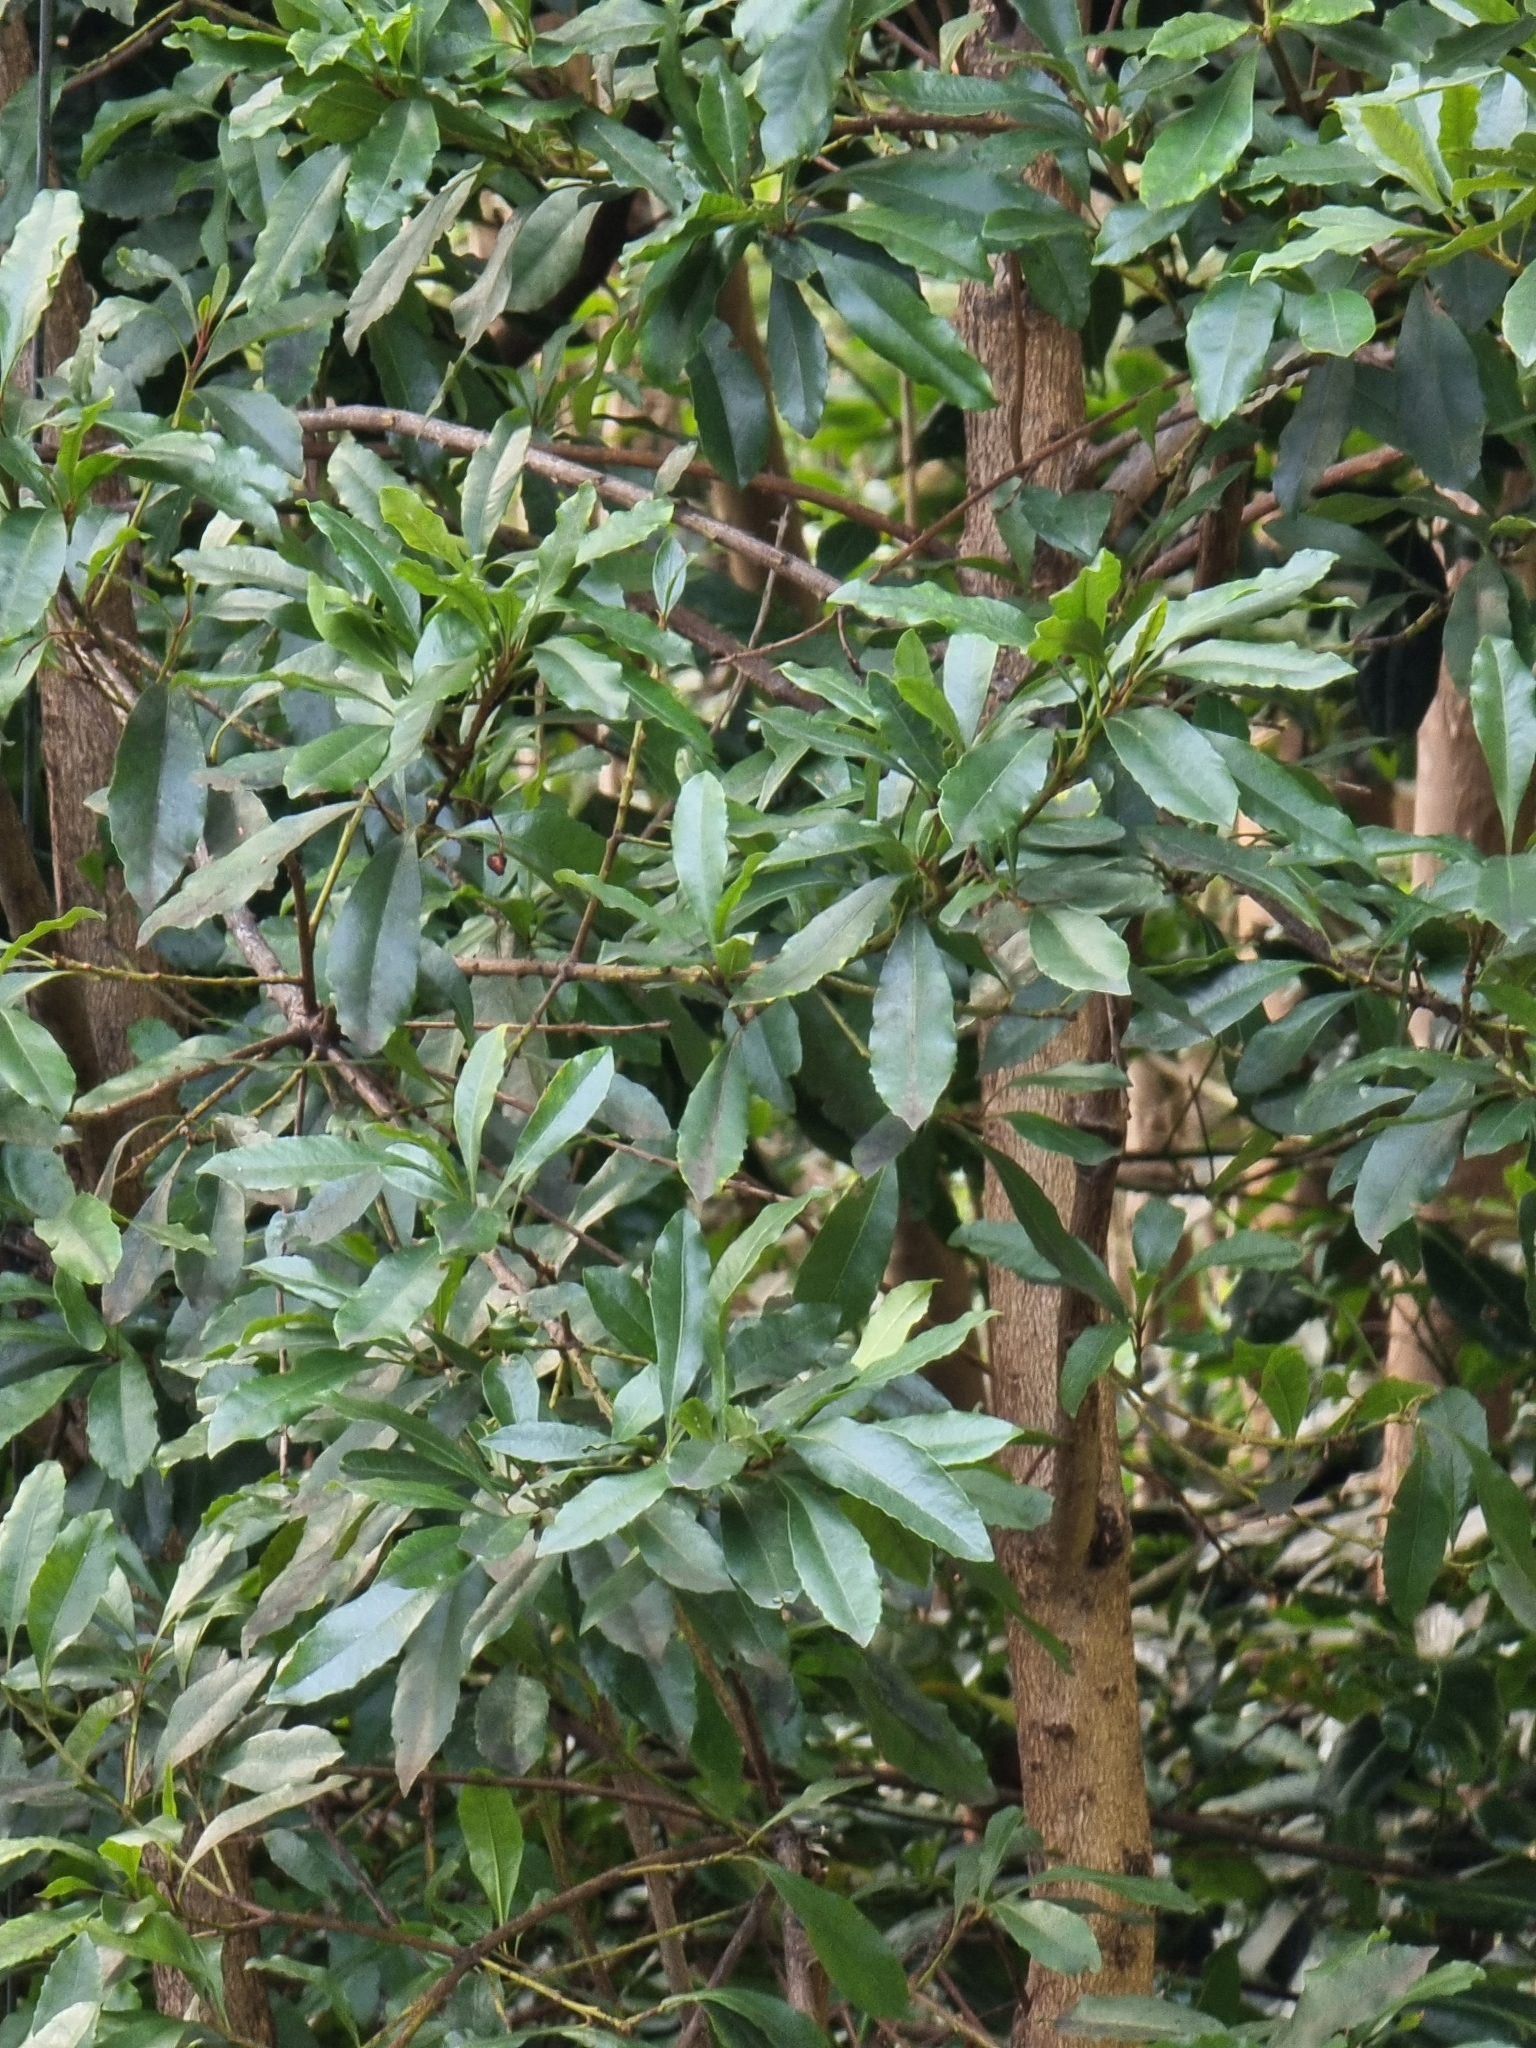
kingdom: Plantae
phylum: Tracheophyta
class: Magnoliopsida
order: Fagales
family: Myricaceae
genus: Morella
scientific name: Morella faya
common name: Firetree
